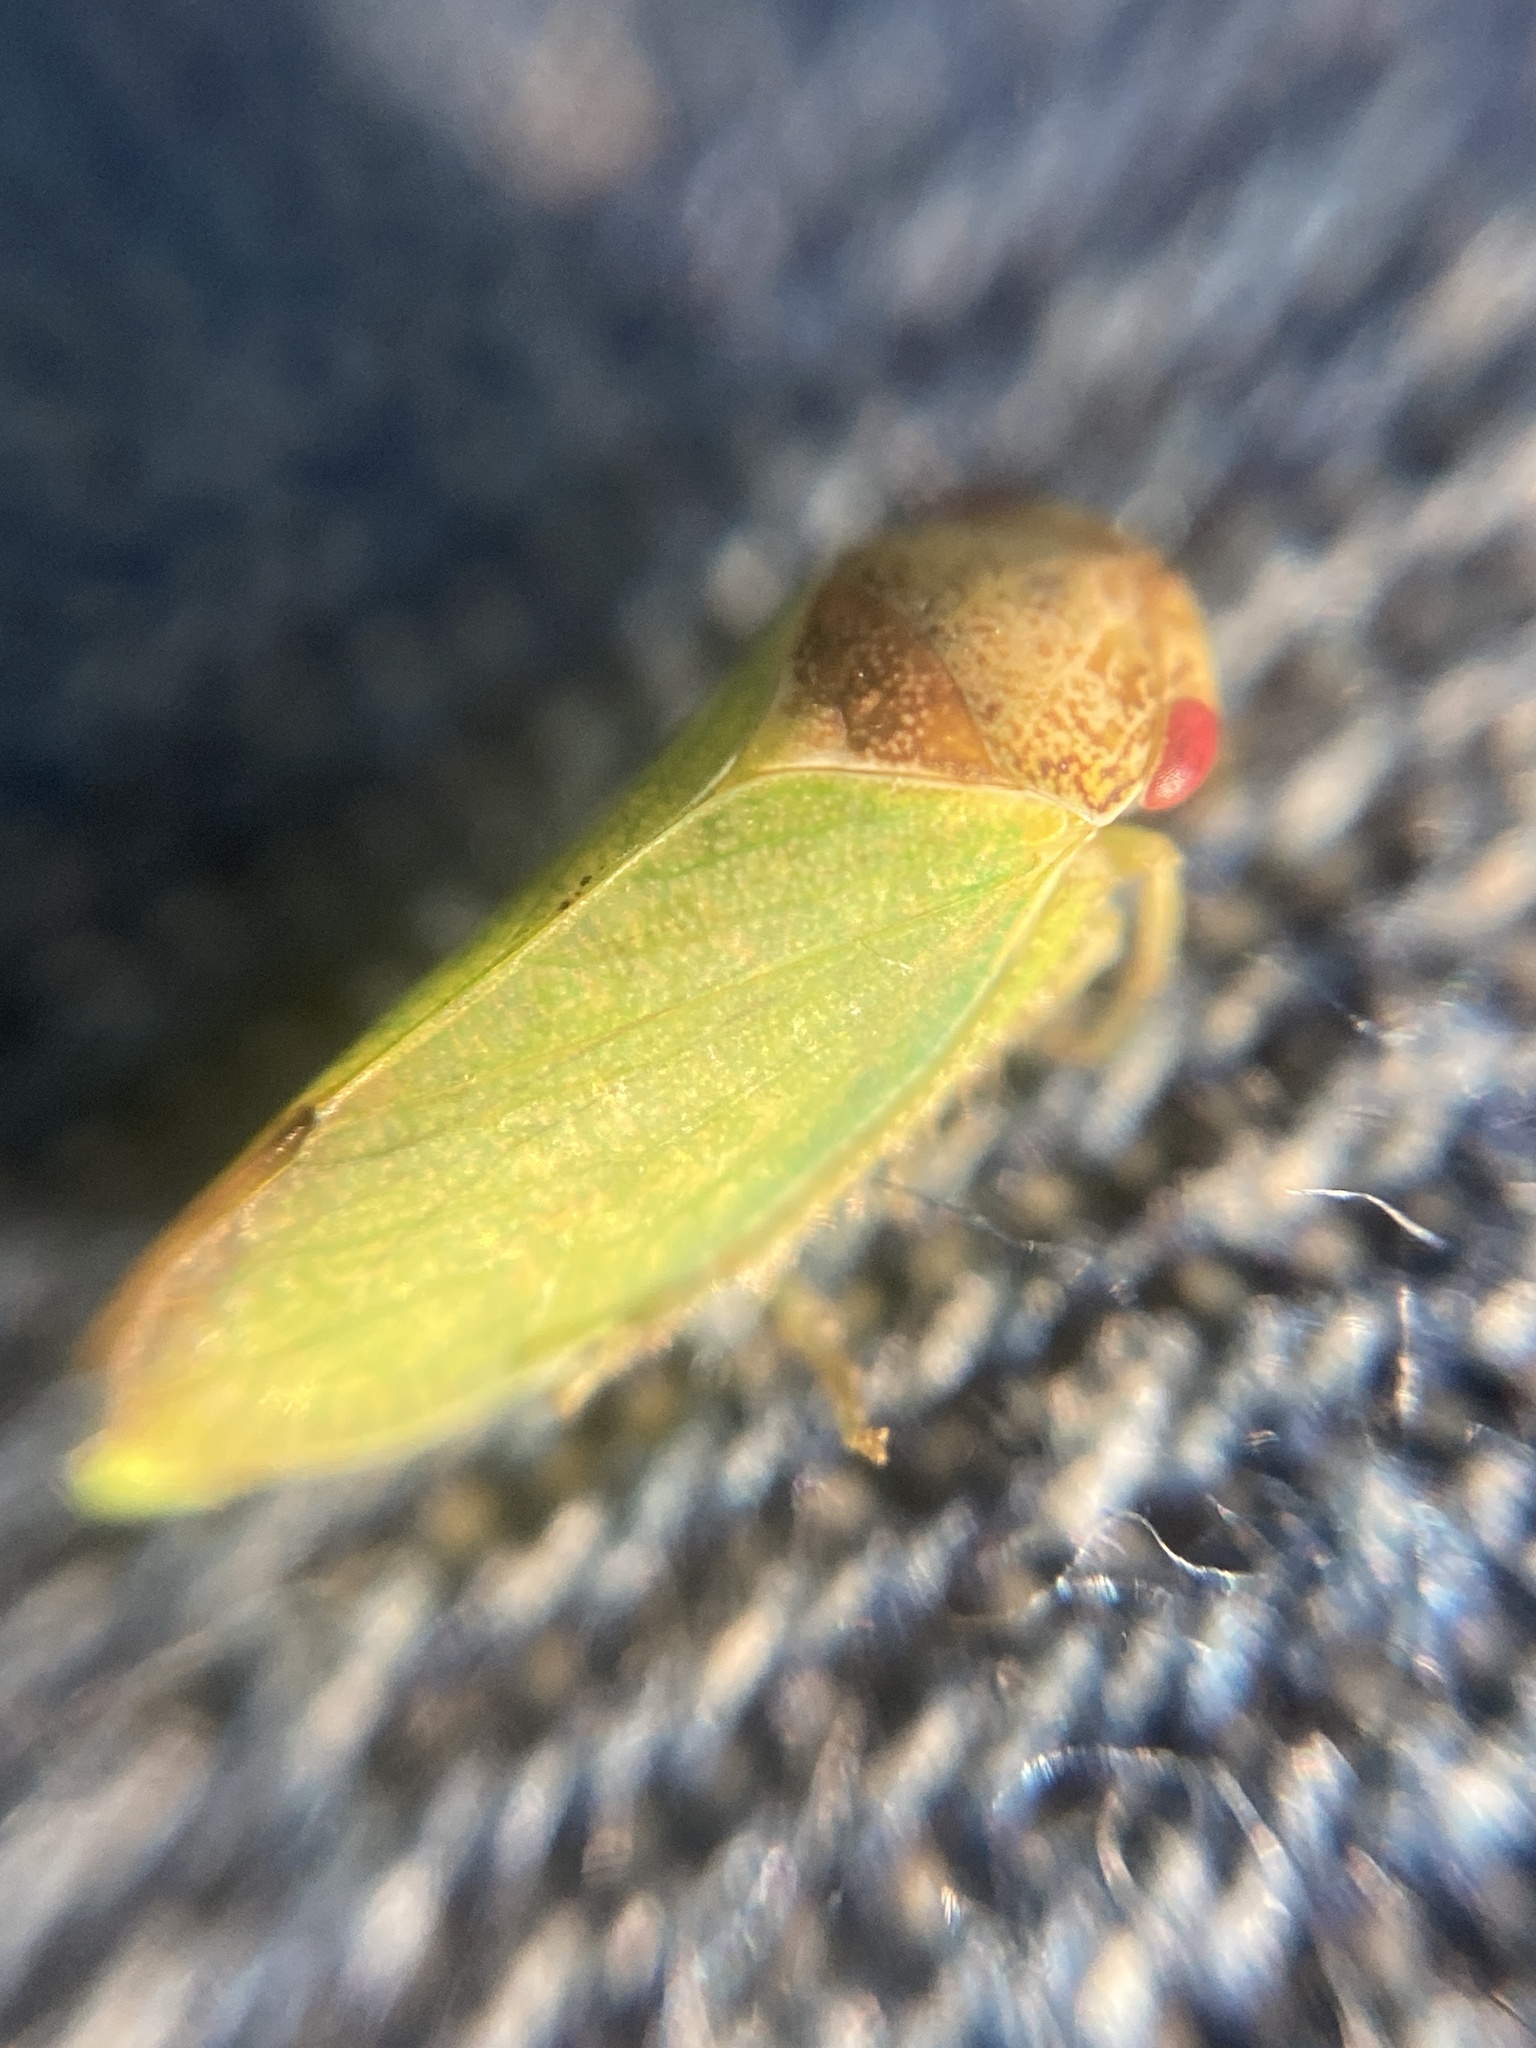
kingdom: Animalia
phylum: Arthropoda
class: Insecta
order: Hemiptera
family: Cicadellidae
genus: Iassus
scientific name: Iassus lanio
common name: Leafhopper
